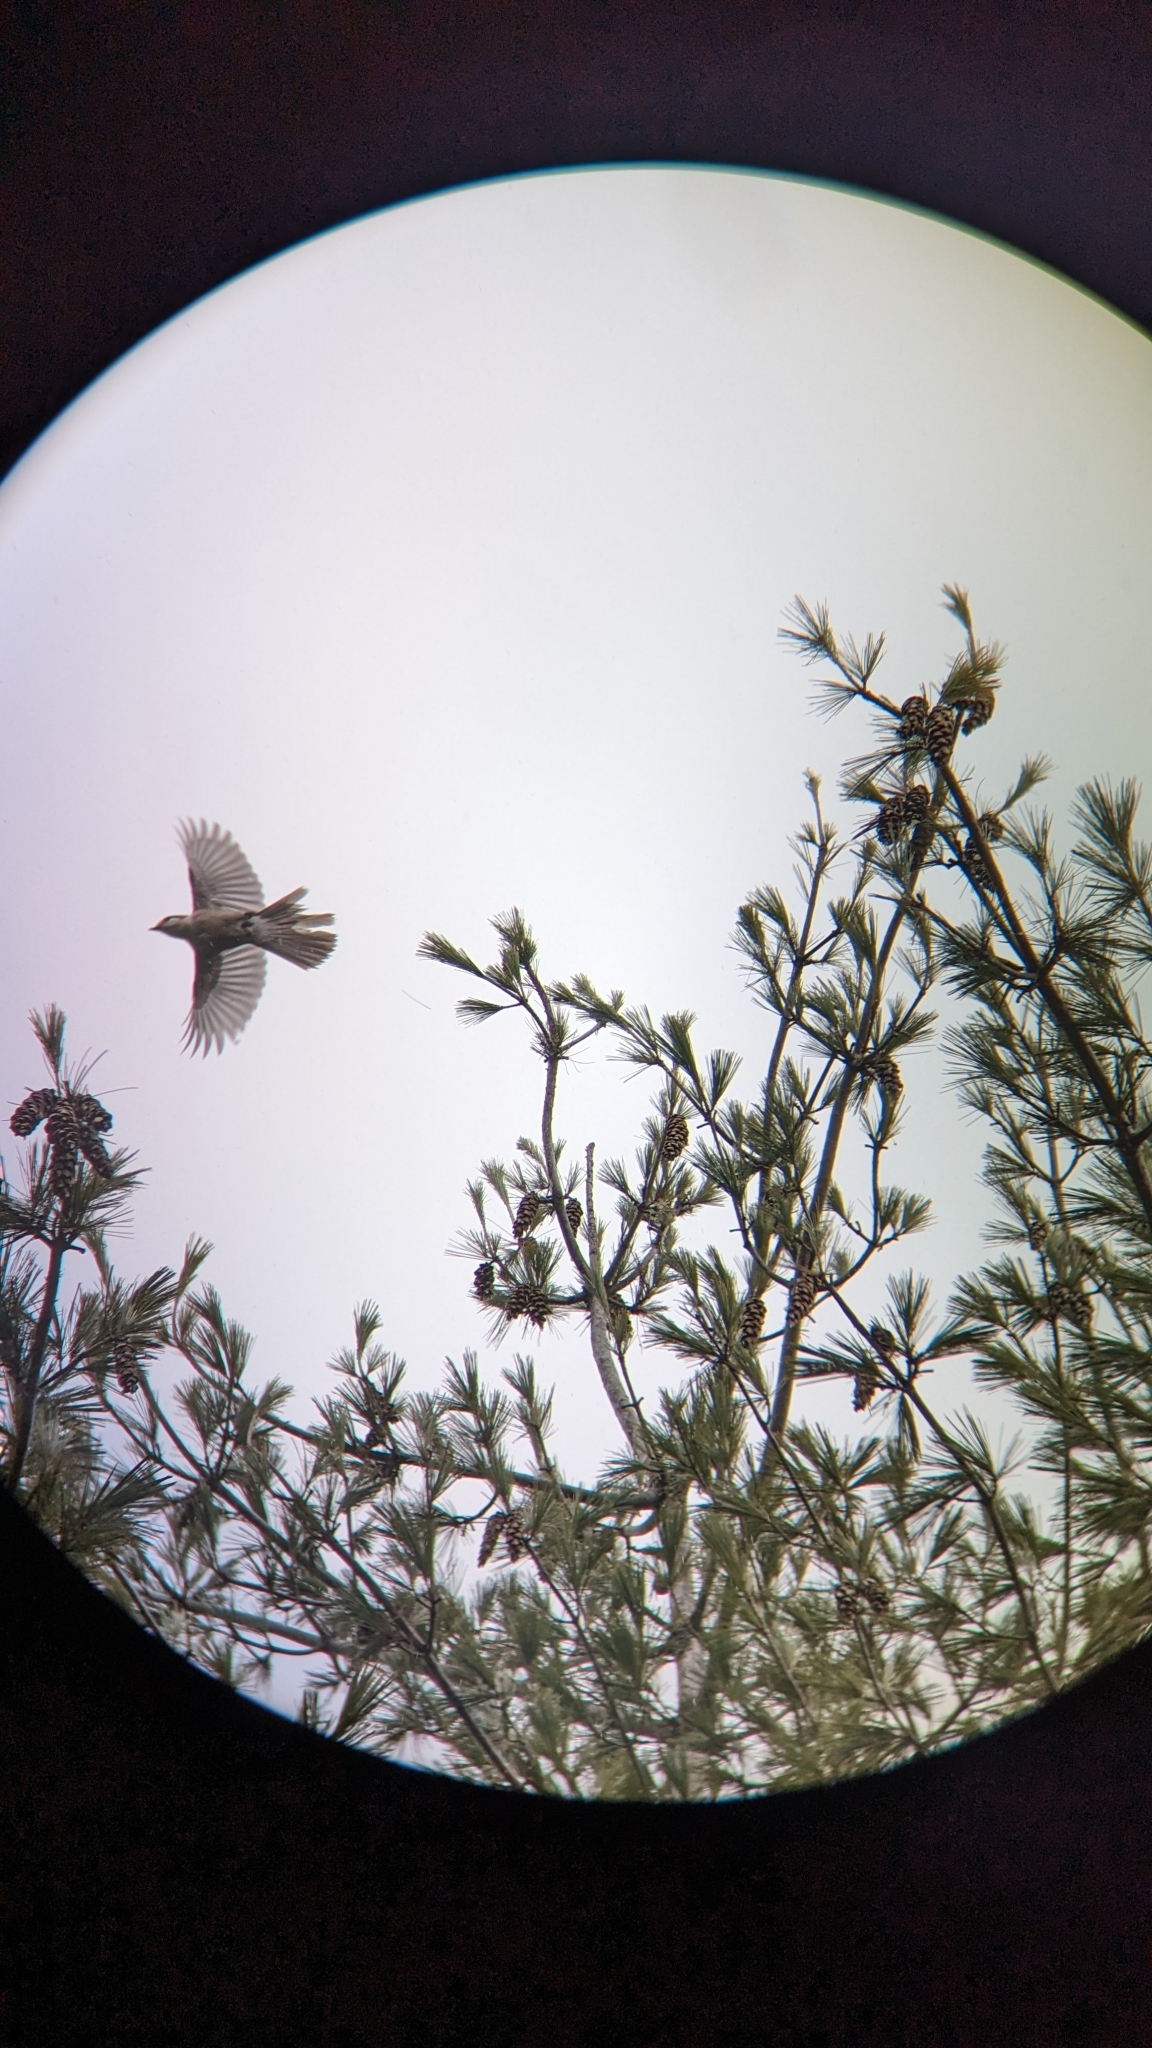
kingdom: Animalia
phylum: Chordata
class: Aves
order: Passeriformes
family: Corvidae
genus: Perisoreus
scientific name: Perisoreus canadensis
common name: Gray jay
